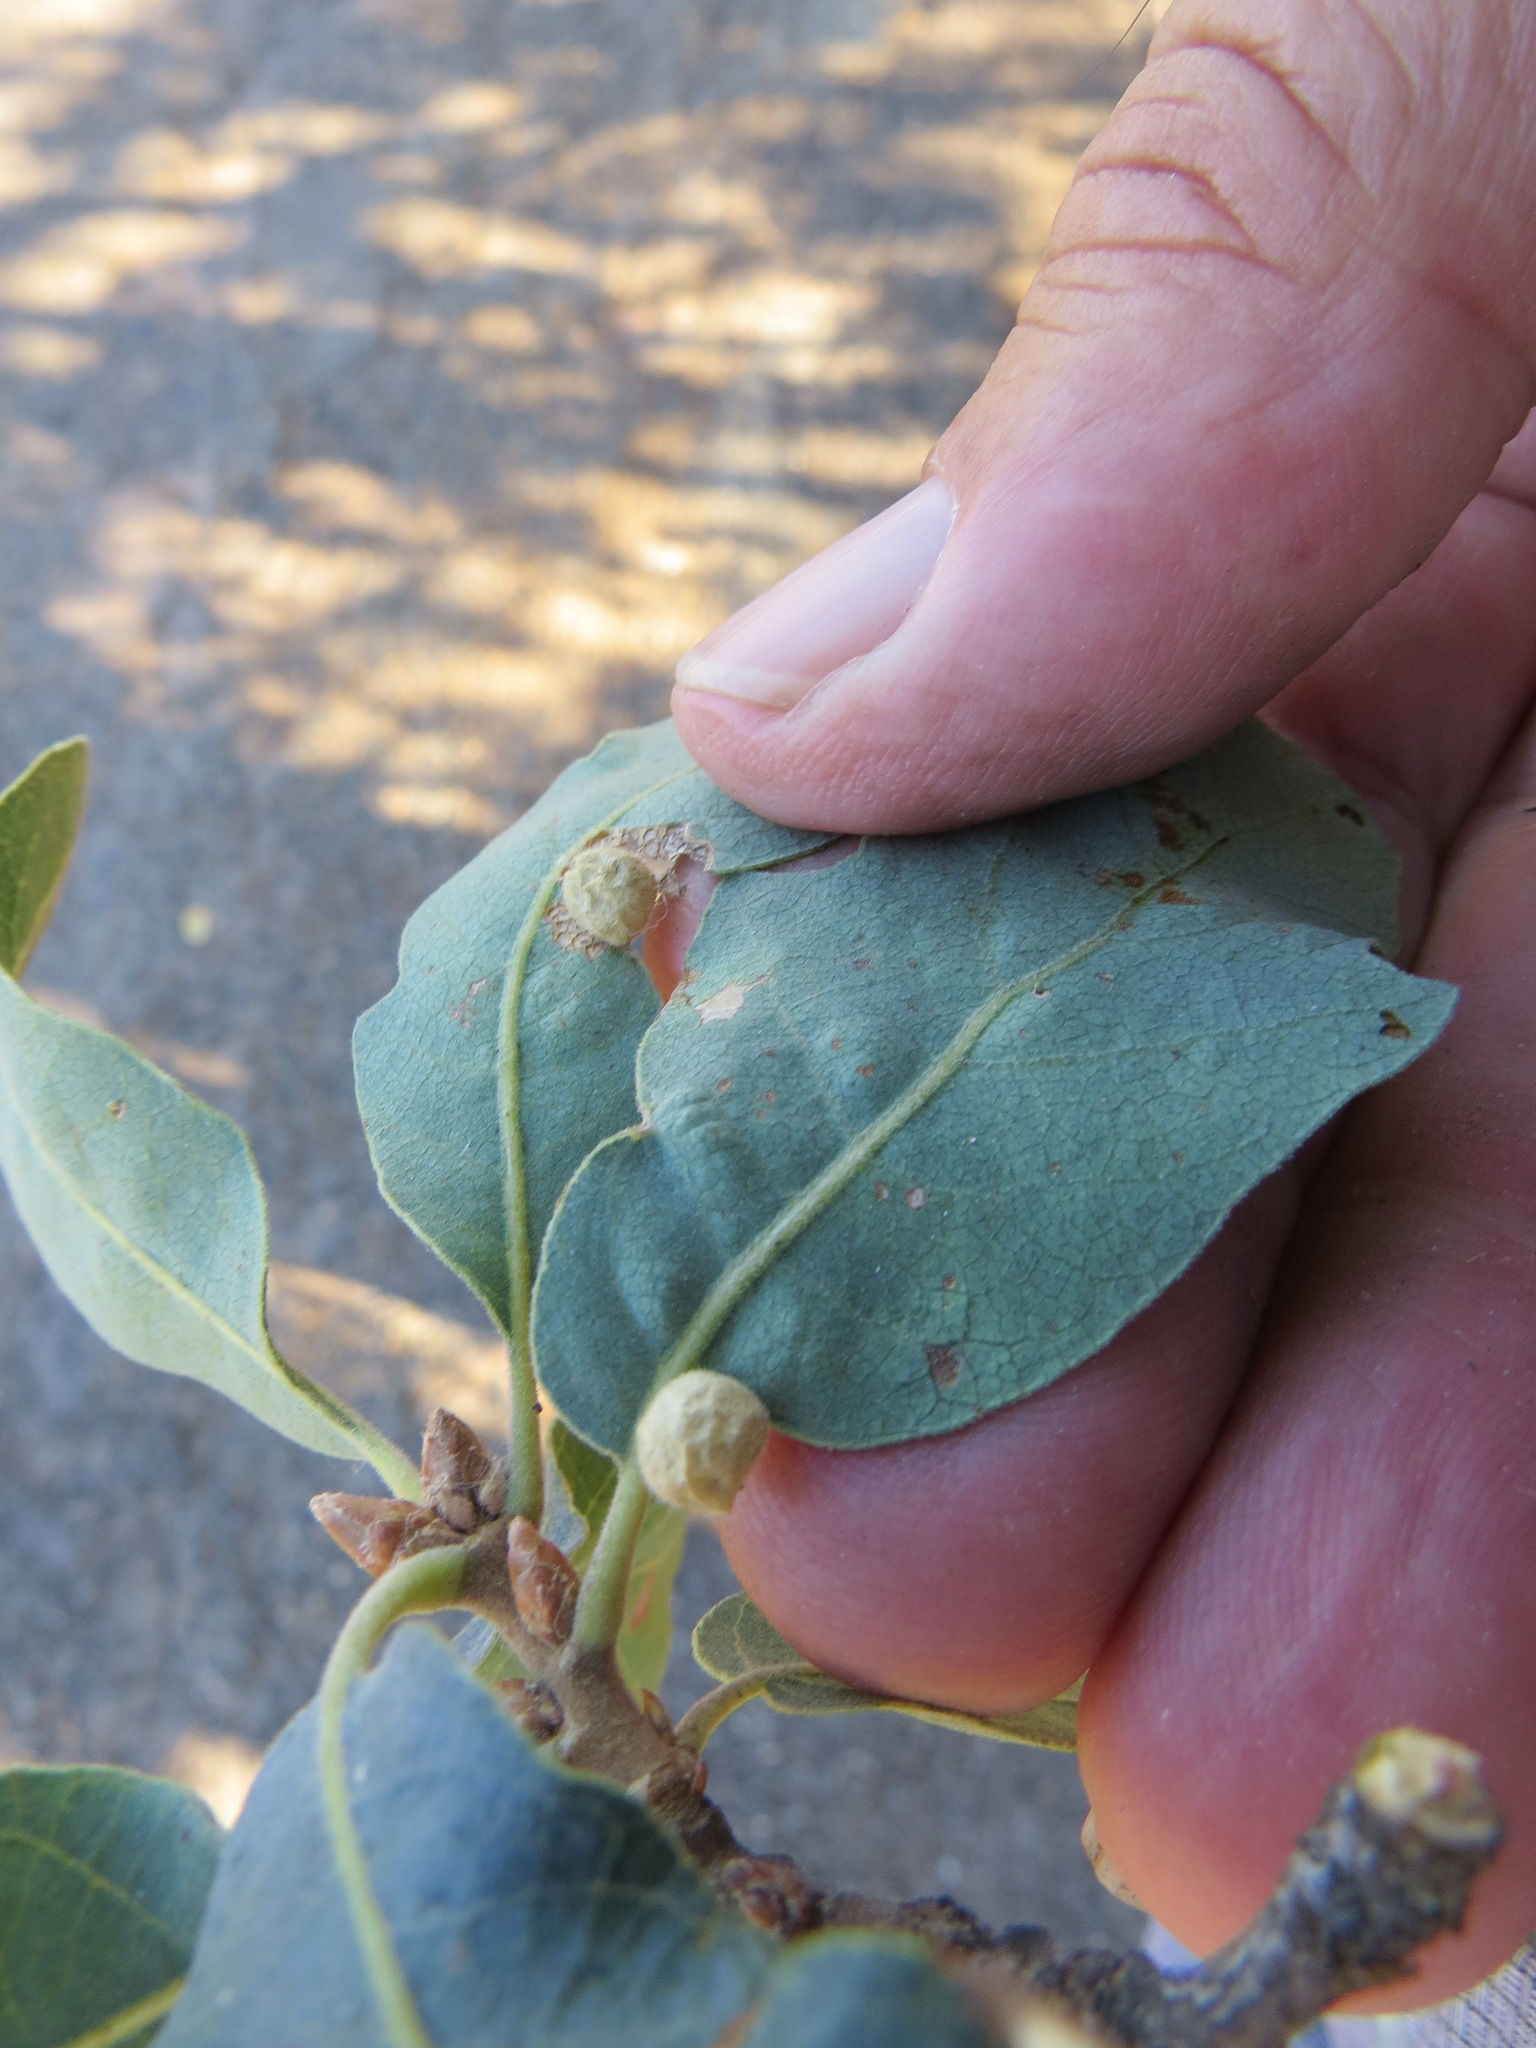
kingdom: Animalia
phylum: Arthropoda
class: Insecta
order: Hymenoptera
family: Cynipidae
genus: Andricus
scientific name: Andricus
